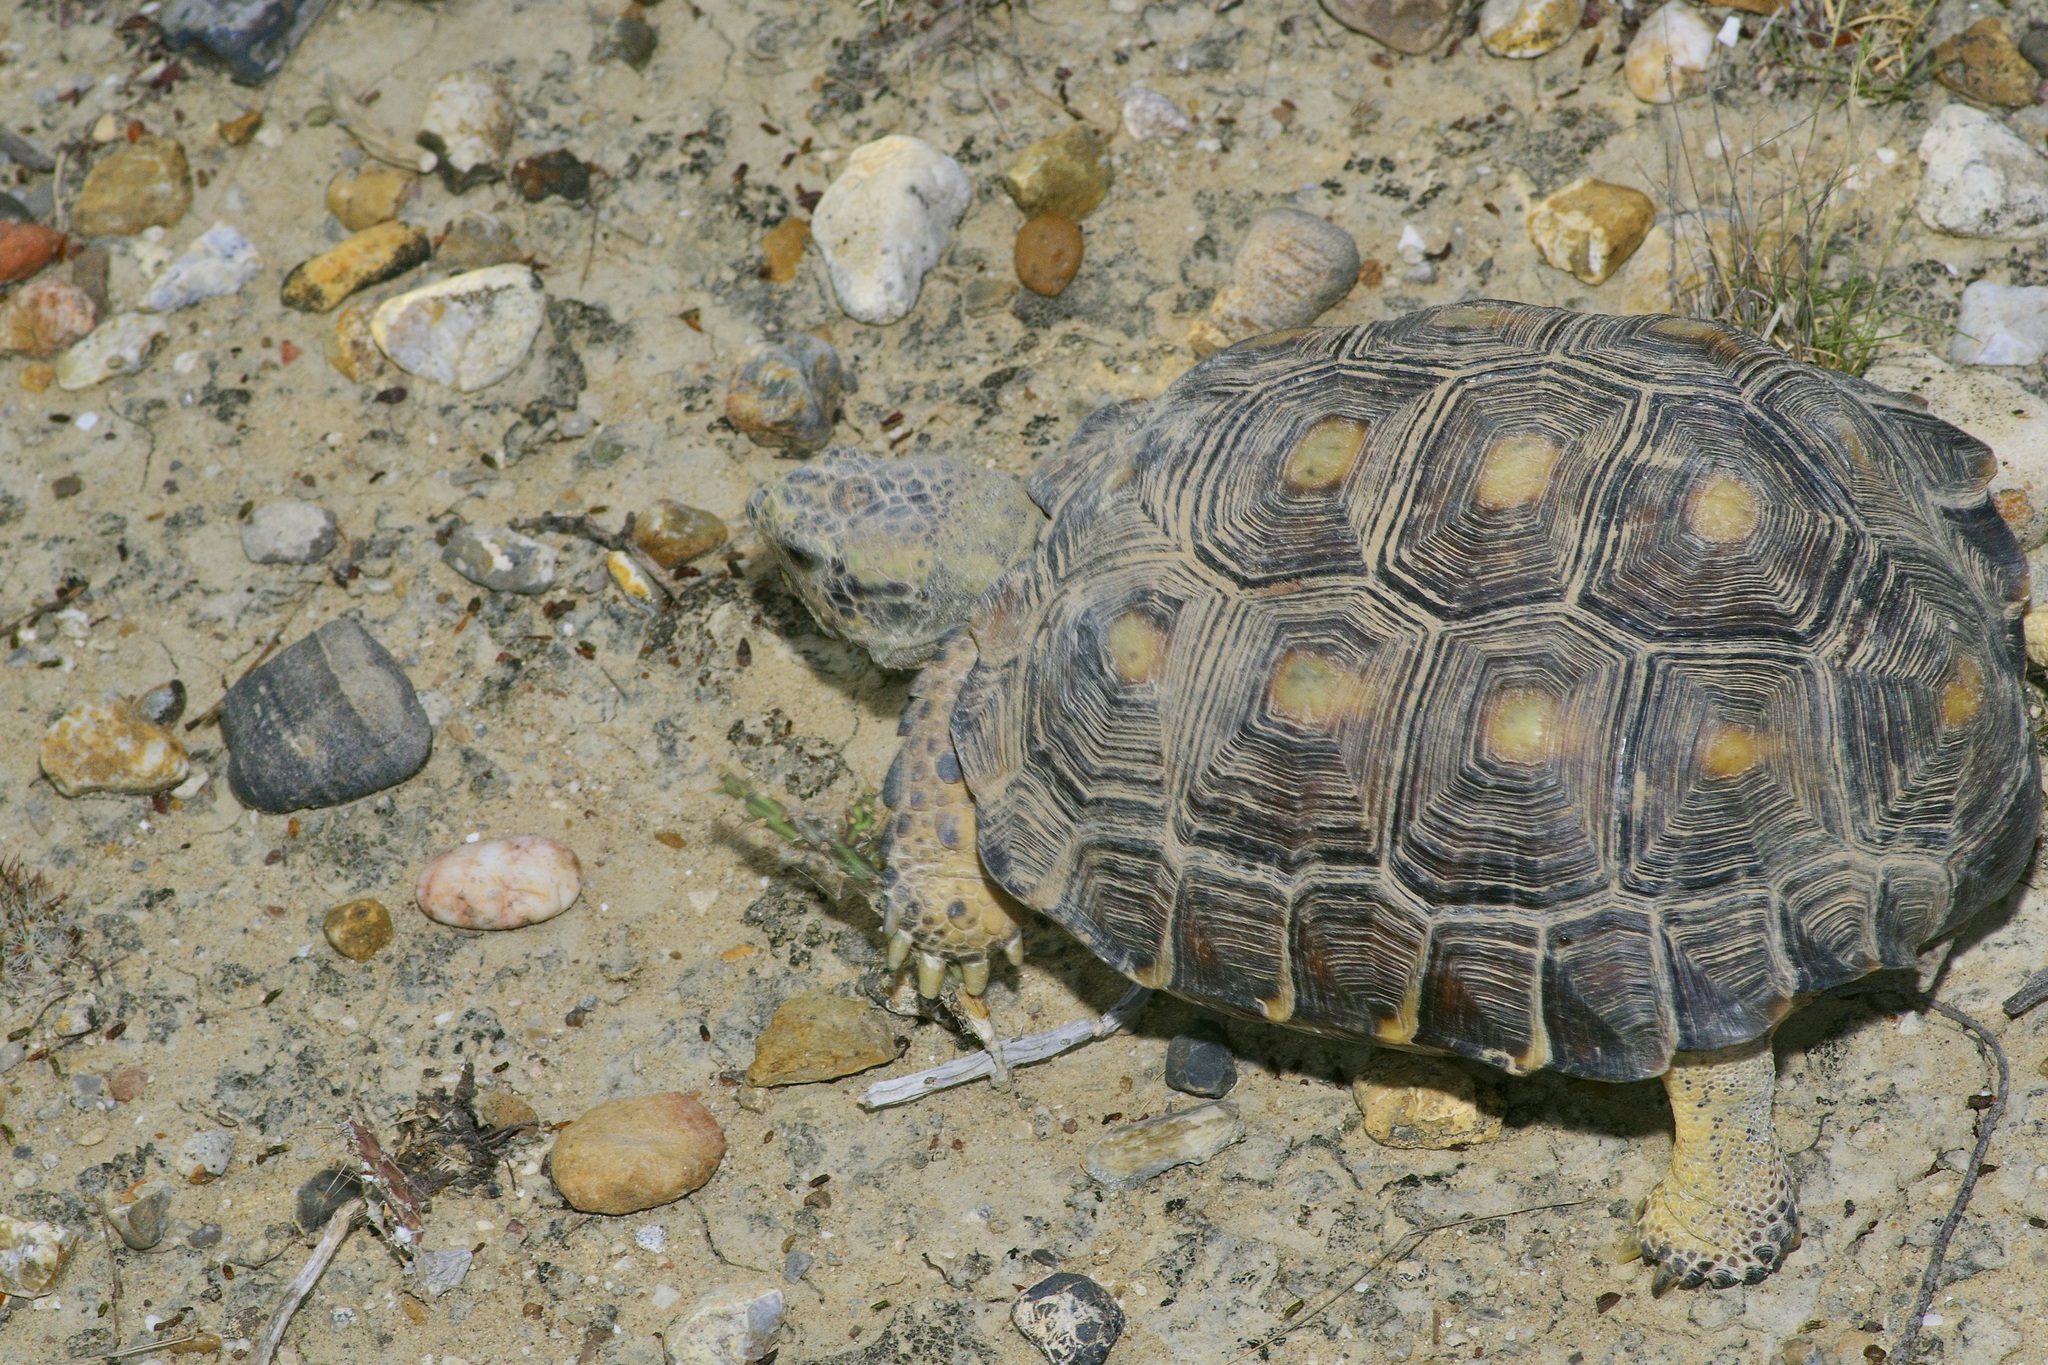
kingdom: Animalia
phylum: Chordata
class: Testudines
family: Testudinidae
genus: Gopherus
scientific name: Gopherus berlandieri
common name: Texas (gopher )tortoise
